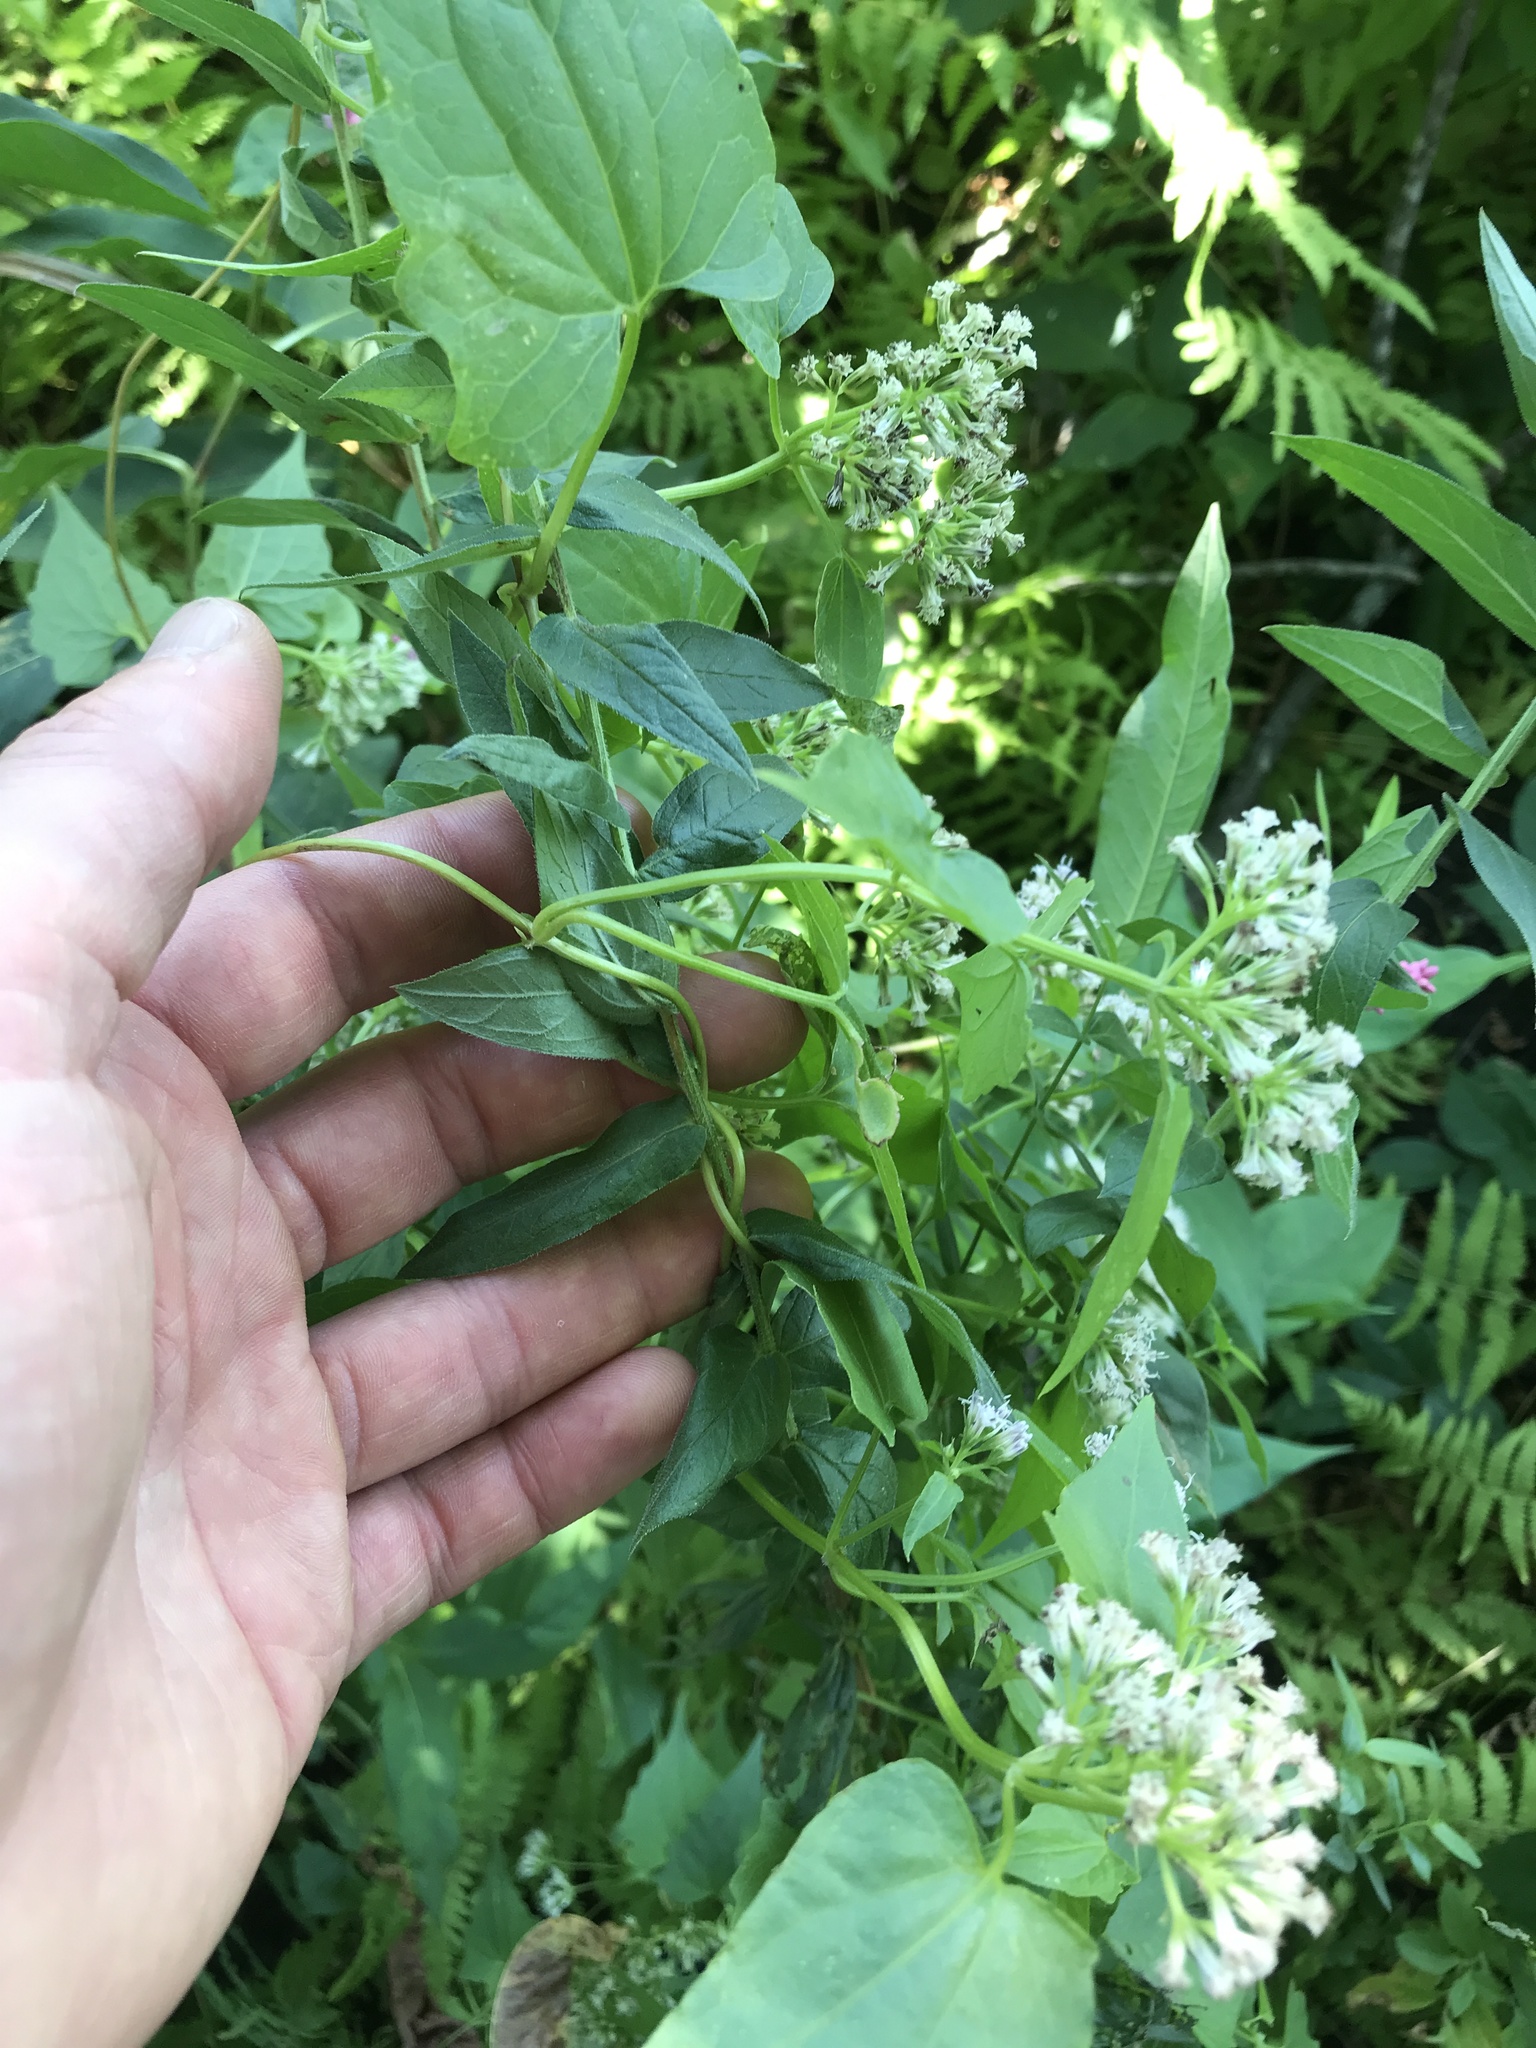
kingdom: Plantae
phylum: Tracheophyta
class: Magnoliopsida
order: Asterales
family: Asteraceae
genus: Mikania
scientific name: Mikania scandens
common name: Climbing hempvine
